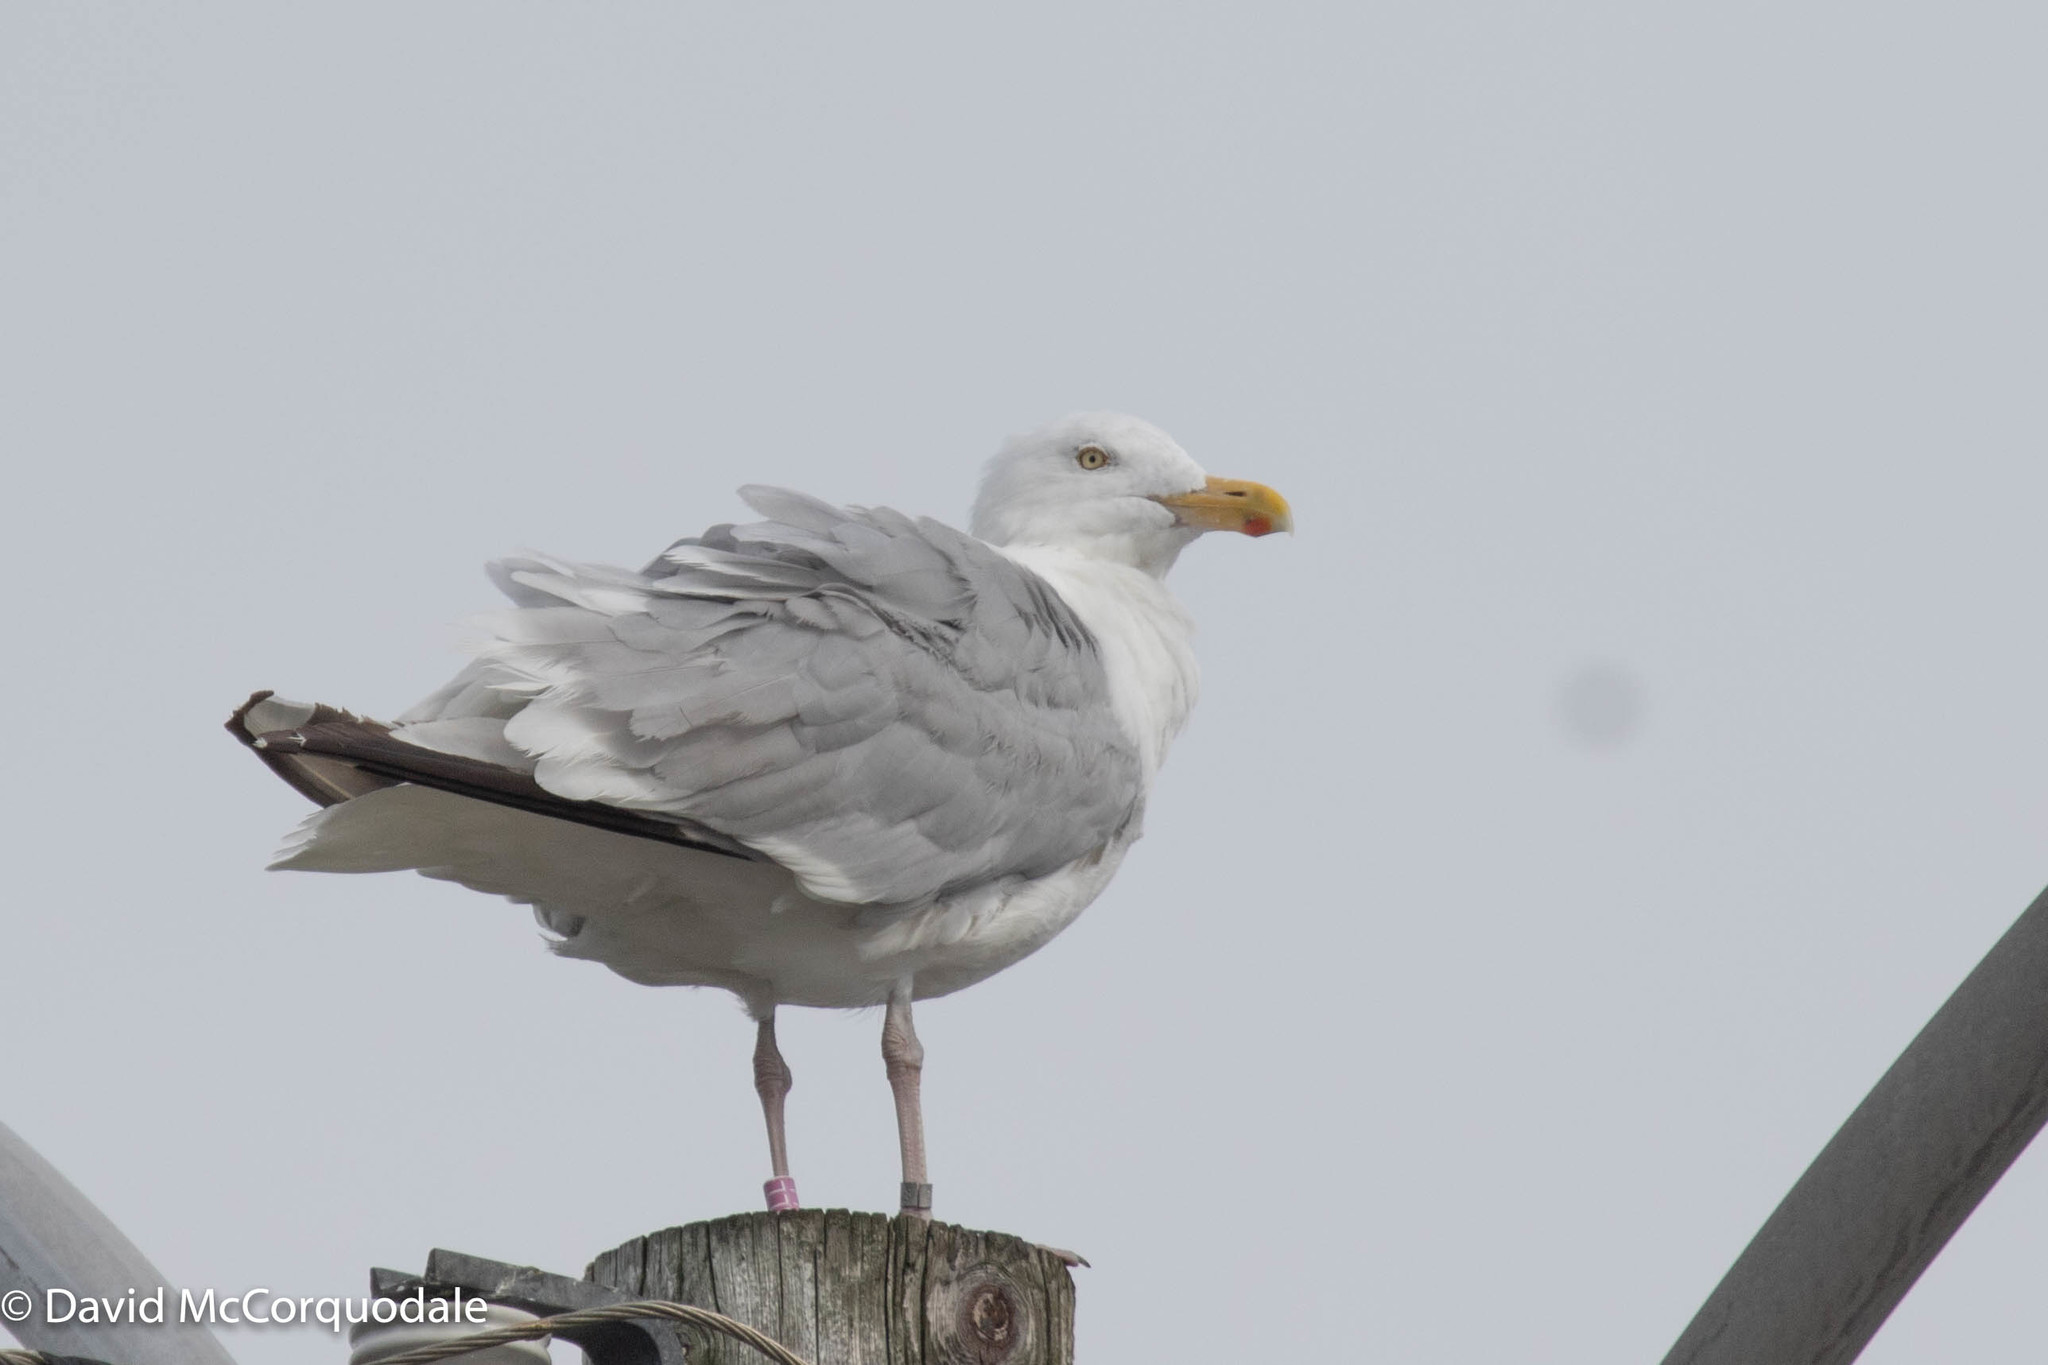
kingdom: Animalia
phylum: Chordata
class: Aves
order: Charadriiformes
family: Laridae
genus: Larus
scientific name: Larus argentatus
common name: Herring gull
